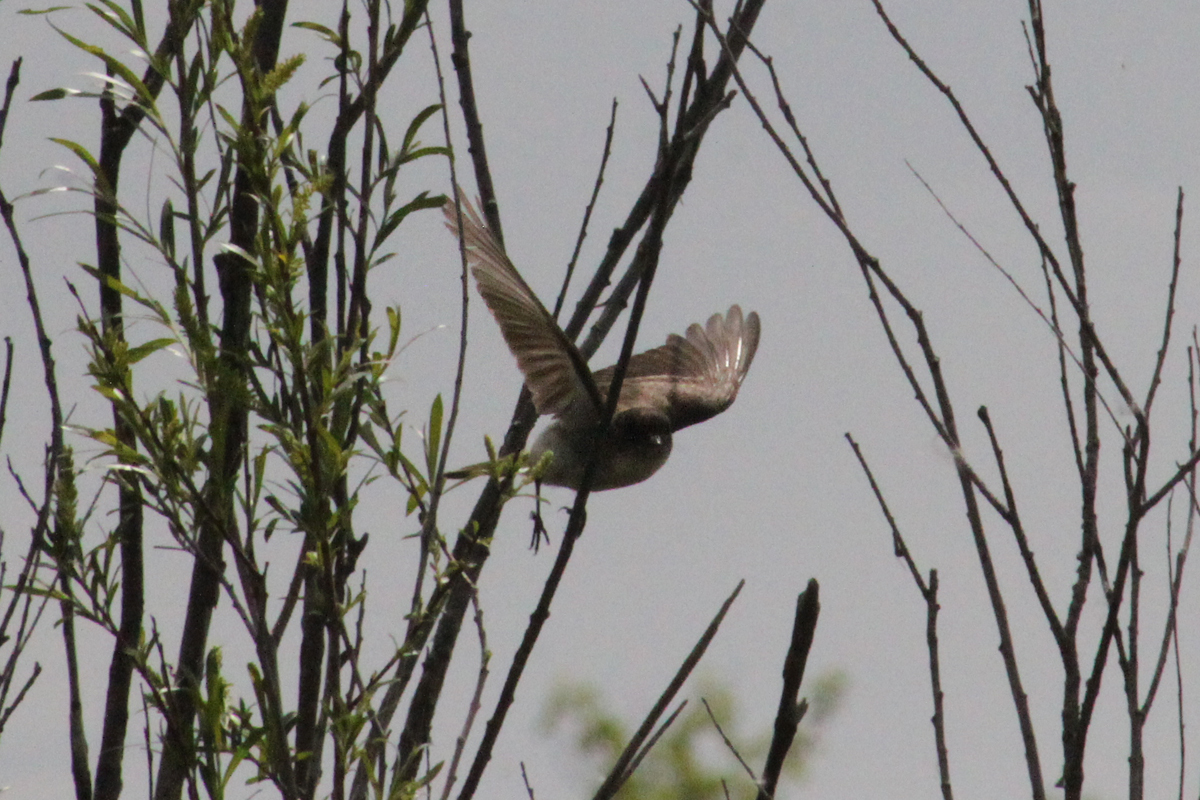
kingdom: Animalia
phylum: Chordata
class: Aves
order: Passeriformes
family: Tyrannidae
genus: Sayornis
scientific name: Sayornis phoebe
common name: Eastern phoebe
